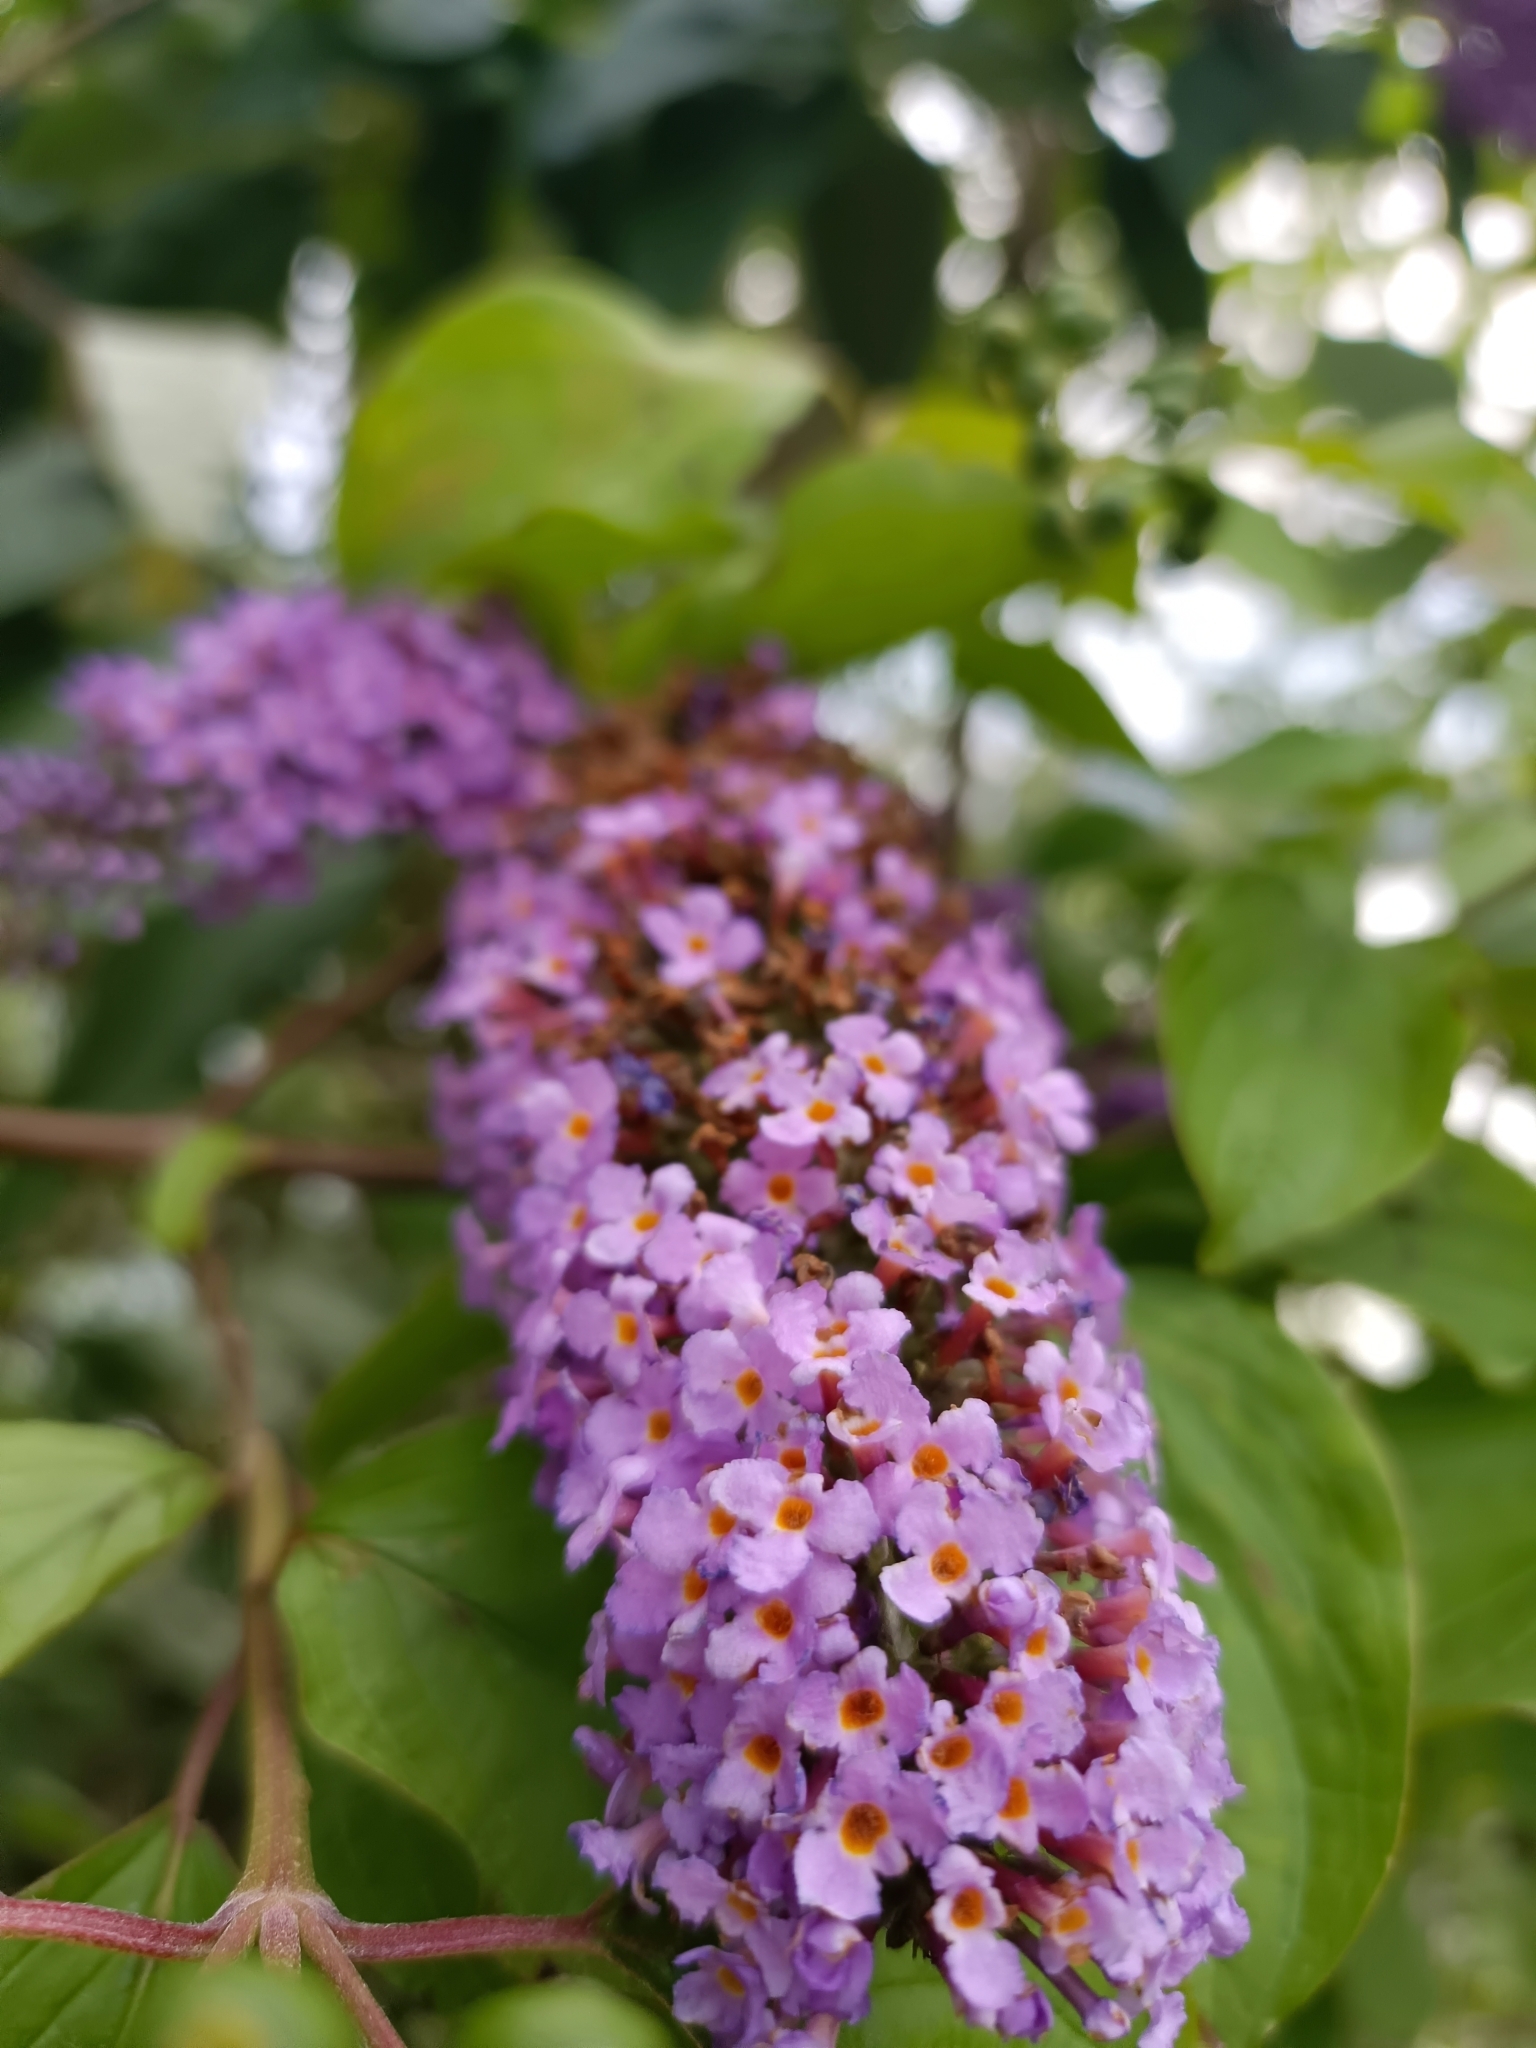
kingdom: Plantae
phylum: Tracheophyta
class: Magnoliopsida
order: Lamiales
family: Scrophulariaceae
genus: Buddleja
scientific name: Buddleja davidii
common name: Butterfly-bush
